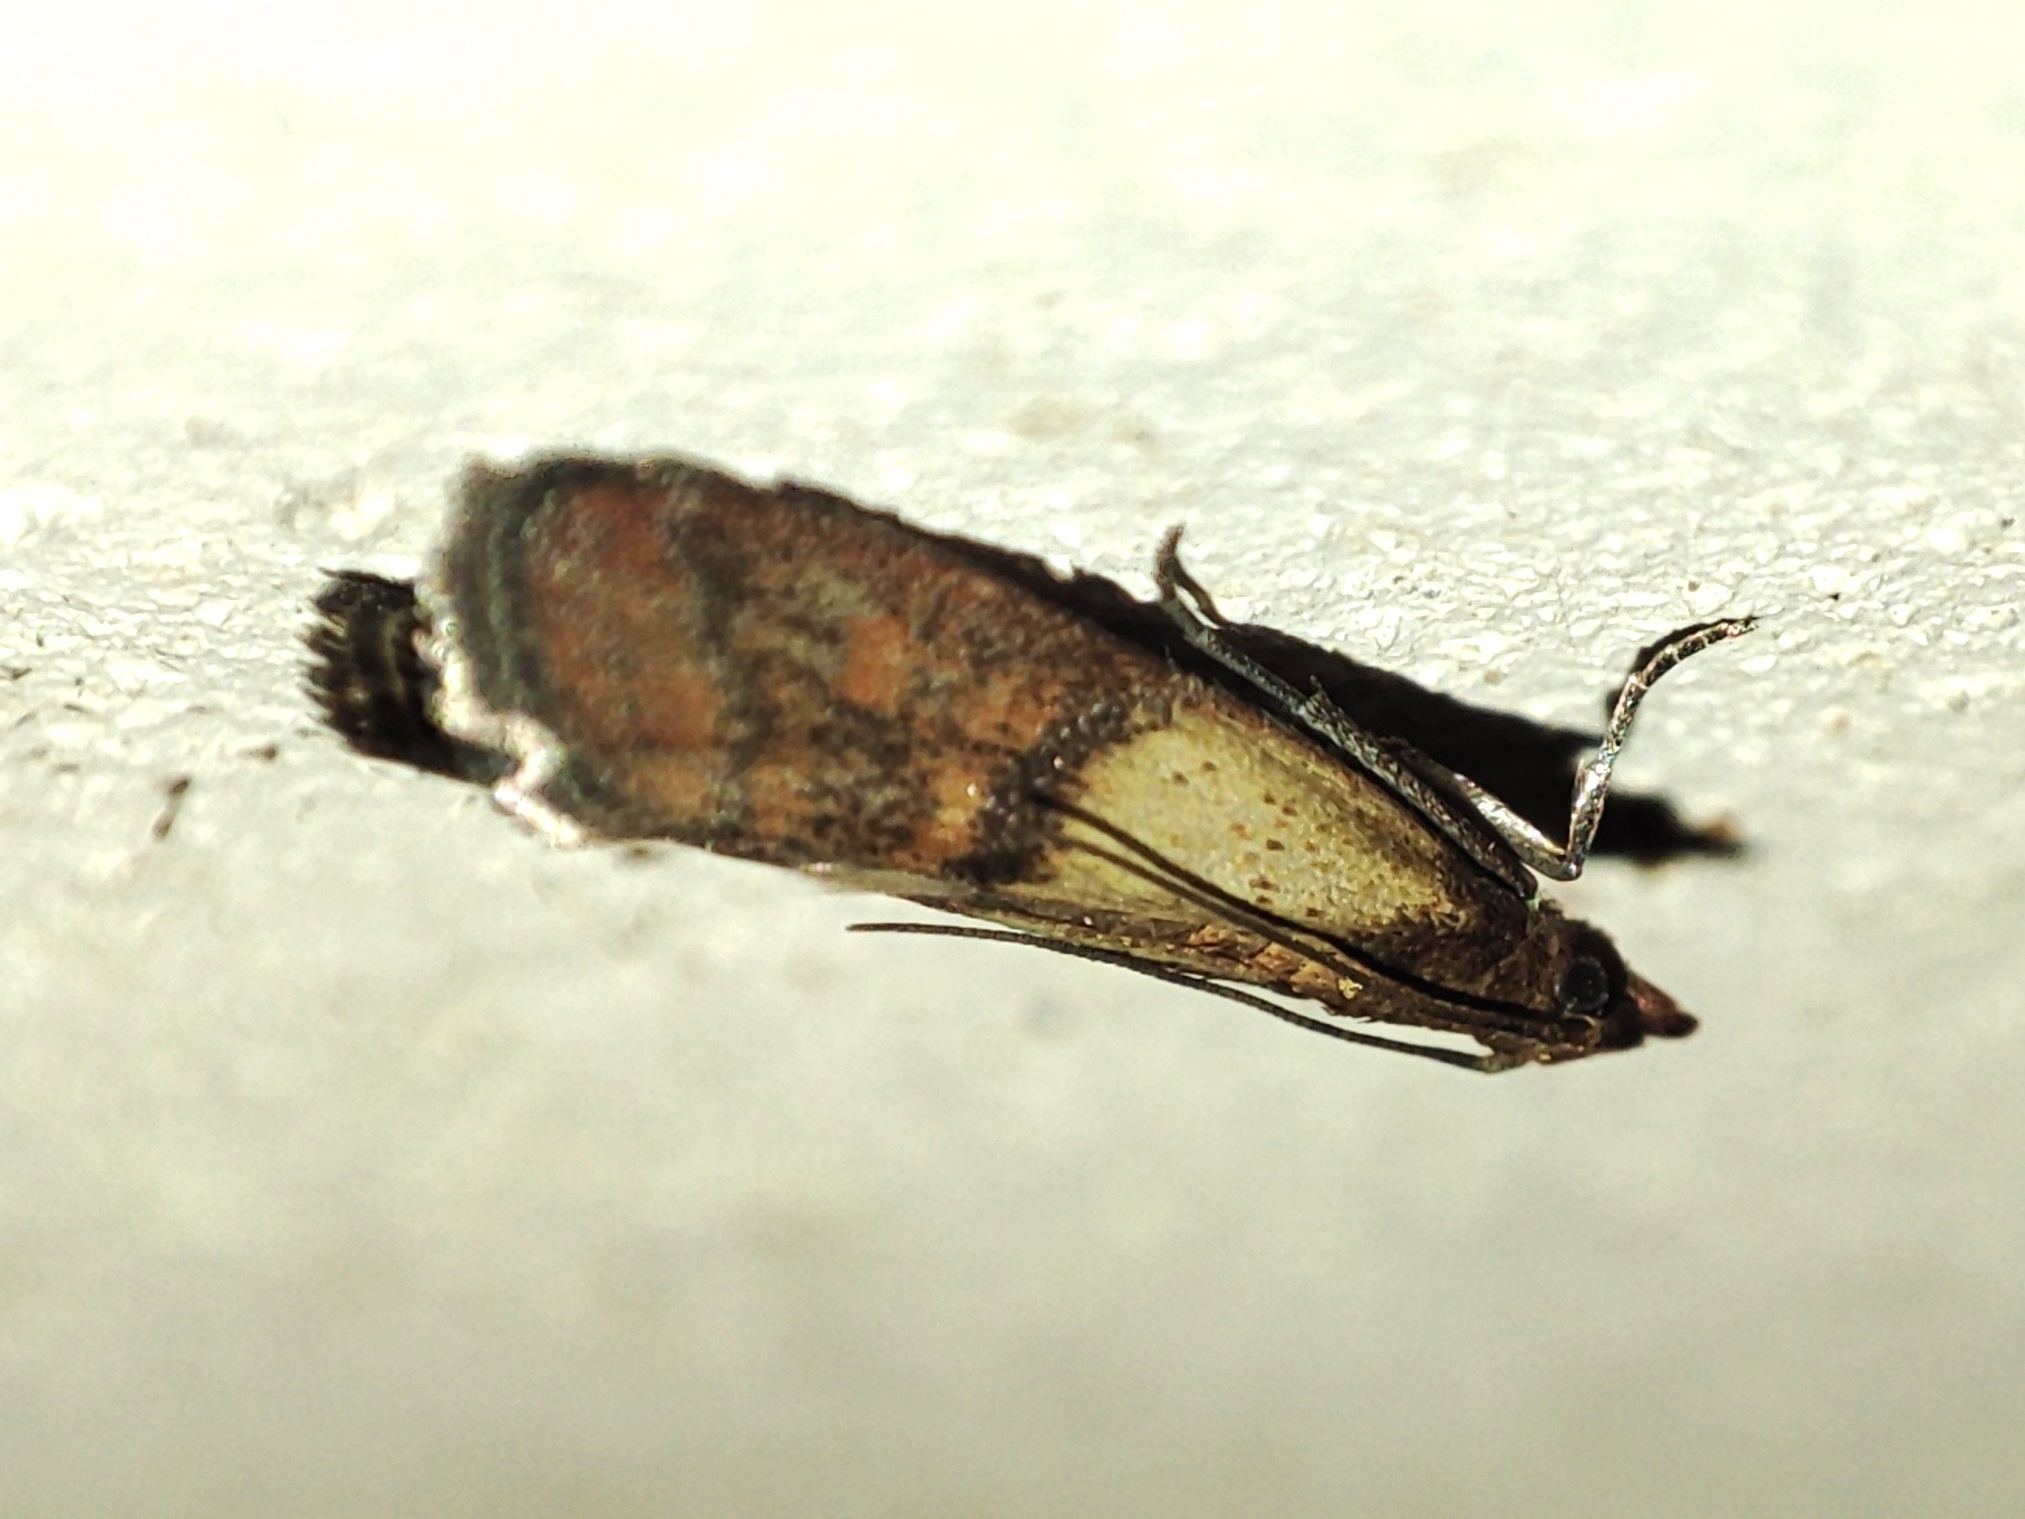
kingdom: Animalia
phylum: Arthropoda
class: Insecta
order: Lepidoptera
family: Pyralidae
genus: Plodia
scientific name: Plodia interpunctella
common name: Indian meal moth
